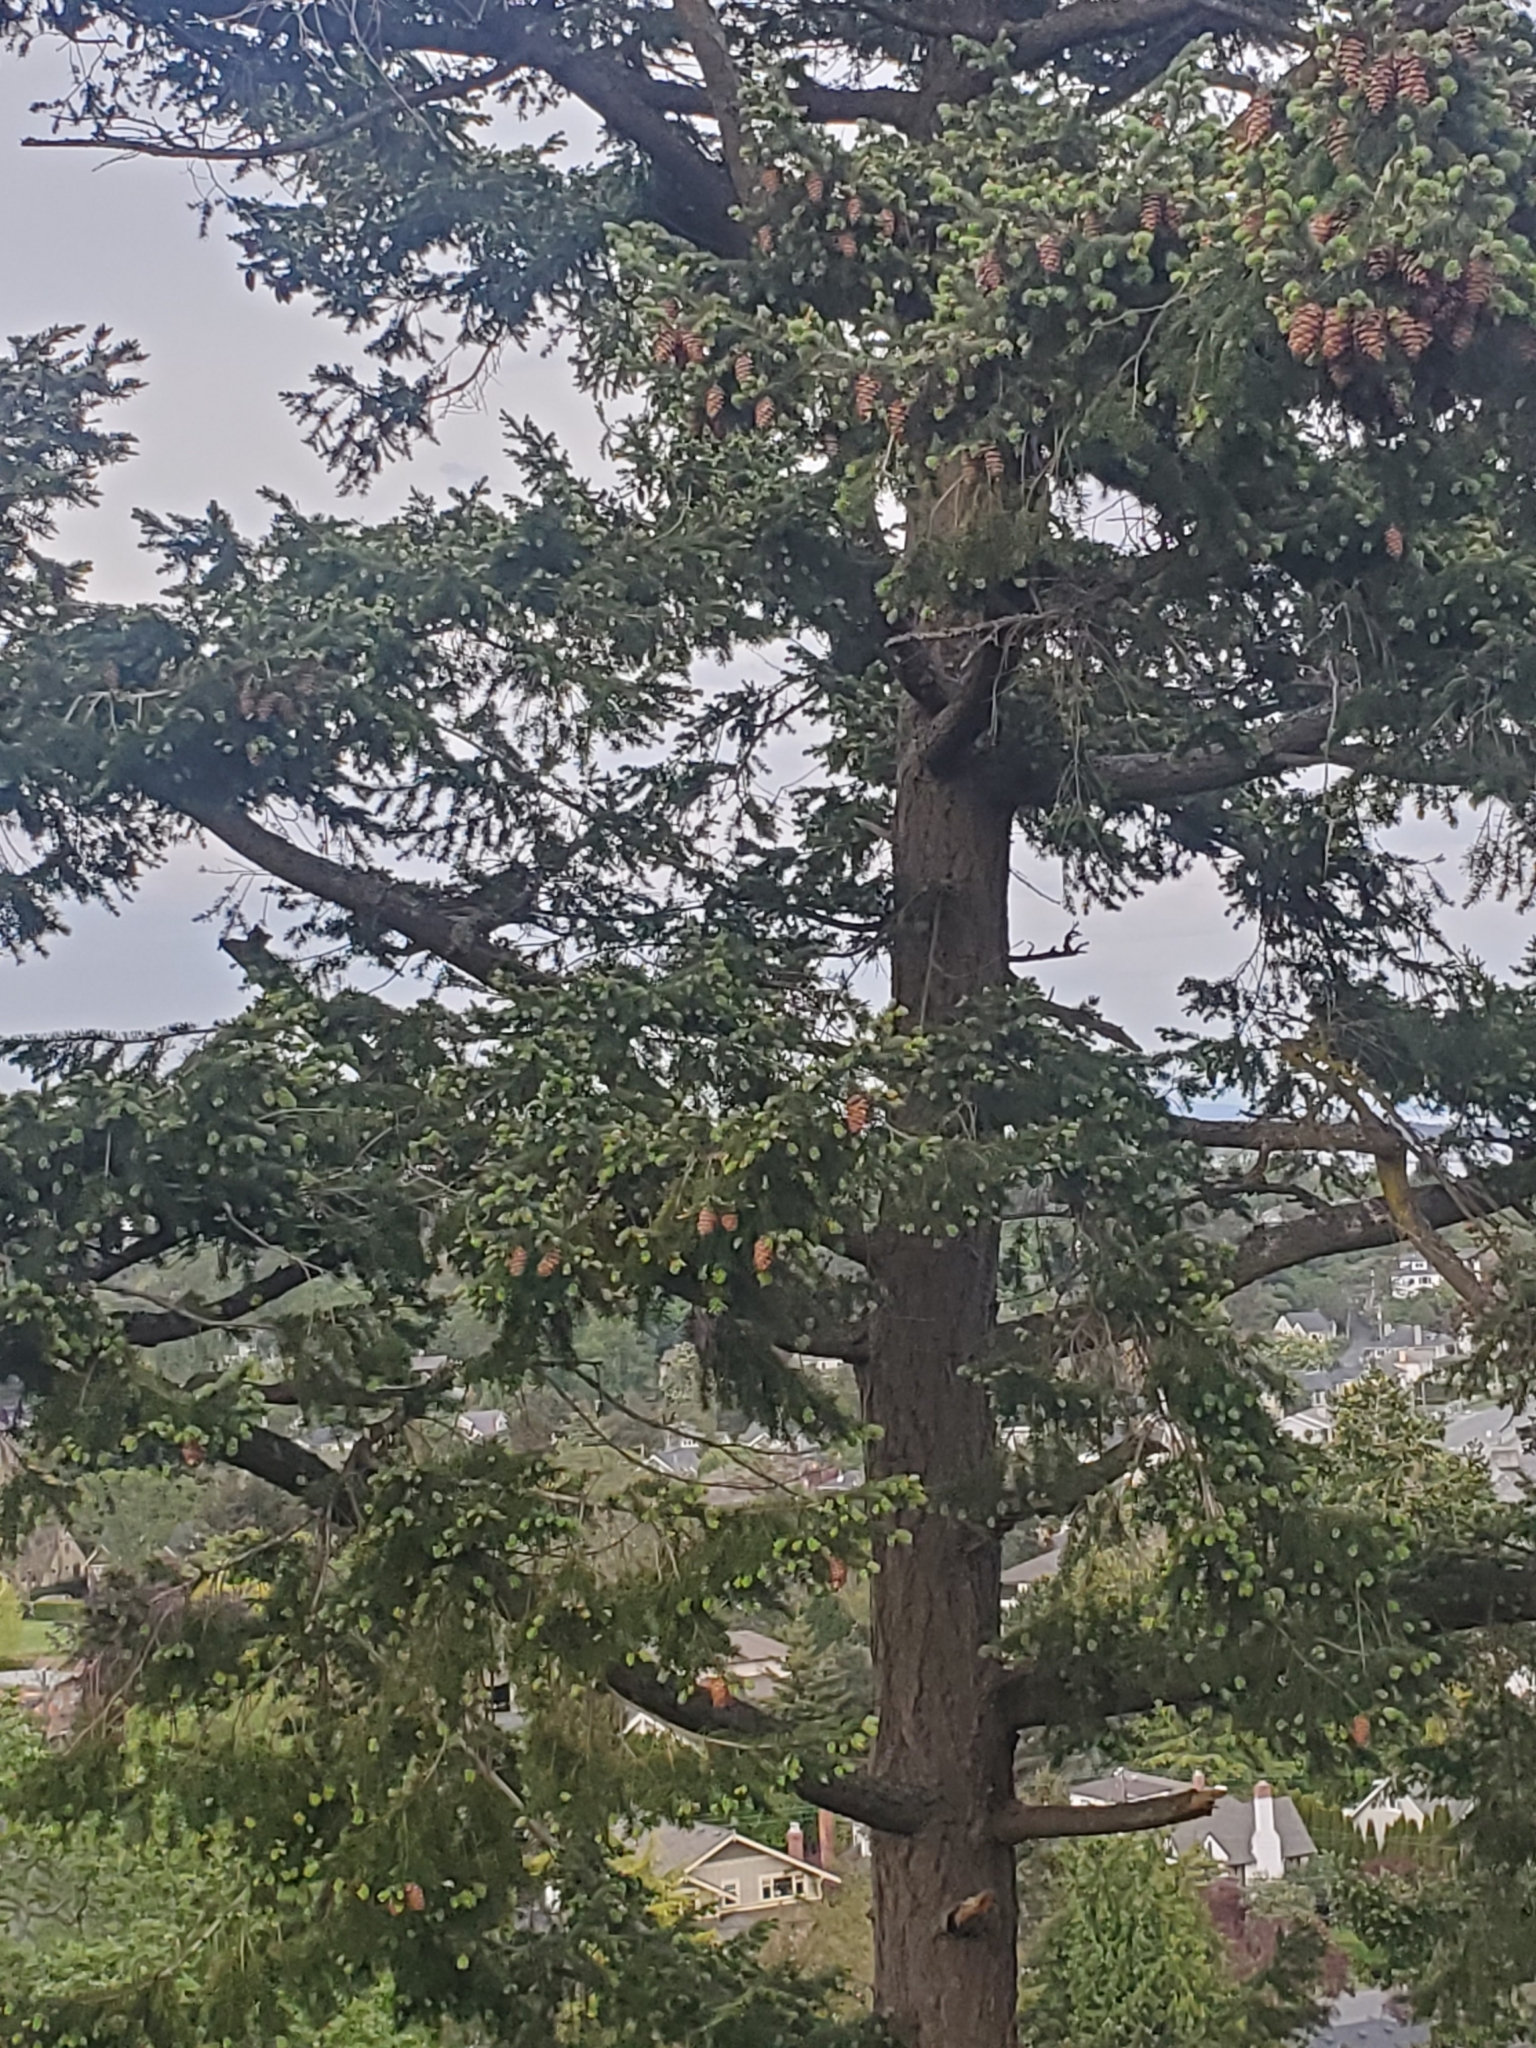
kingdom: Plantae
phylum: Tracheophyta
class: Pinopsida
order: Pinales
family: Pinaceae
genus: Pseudotsuga
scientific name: Pseudotsuga menziesii
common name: Douglas fir
